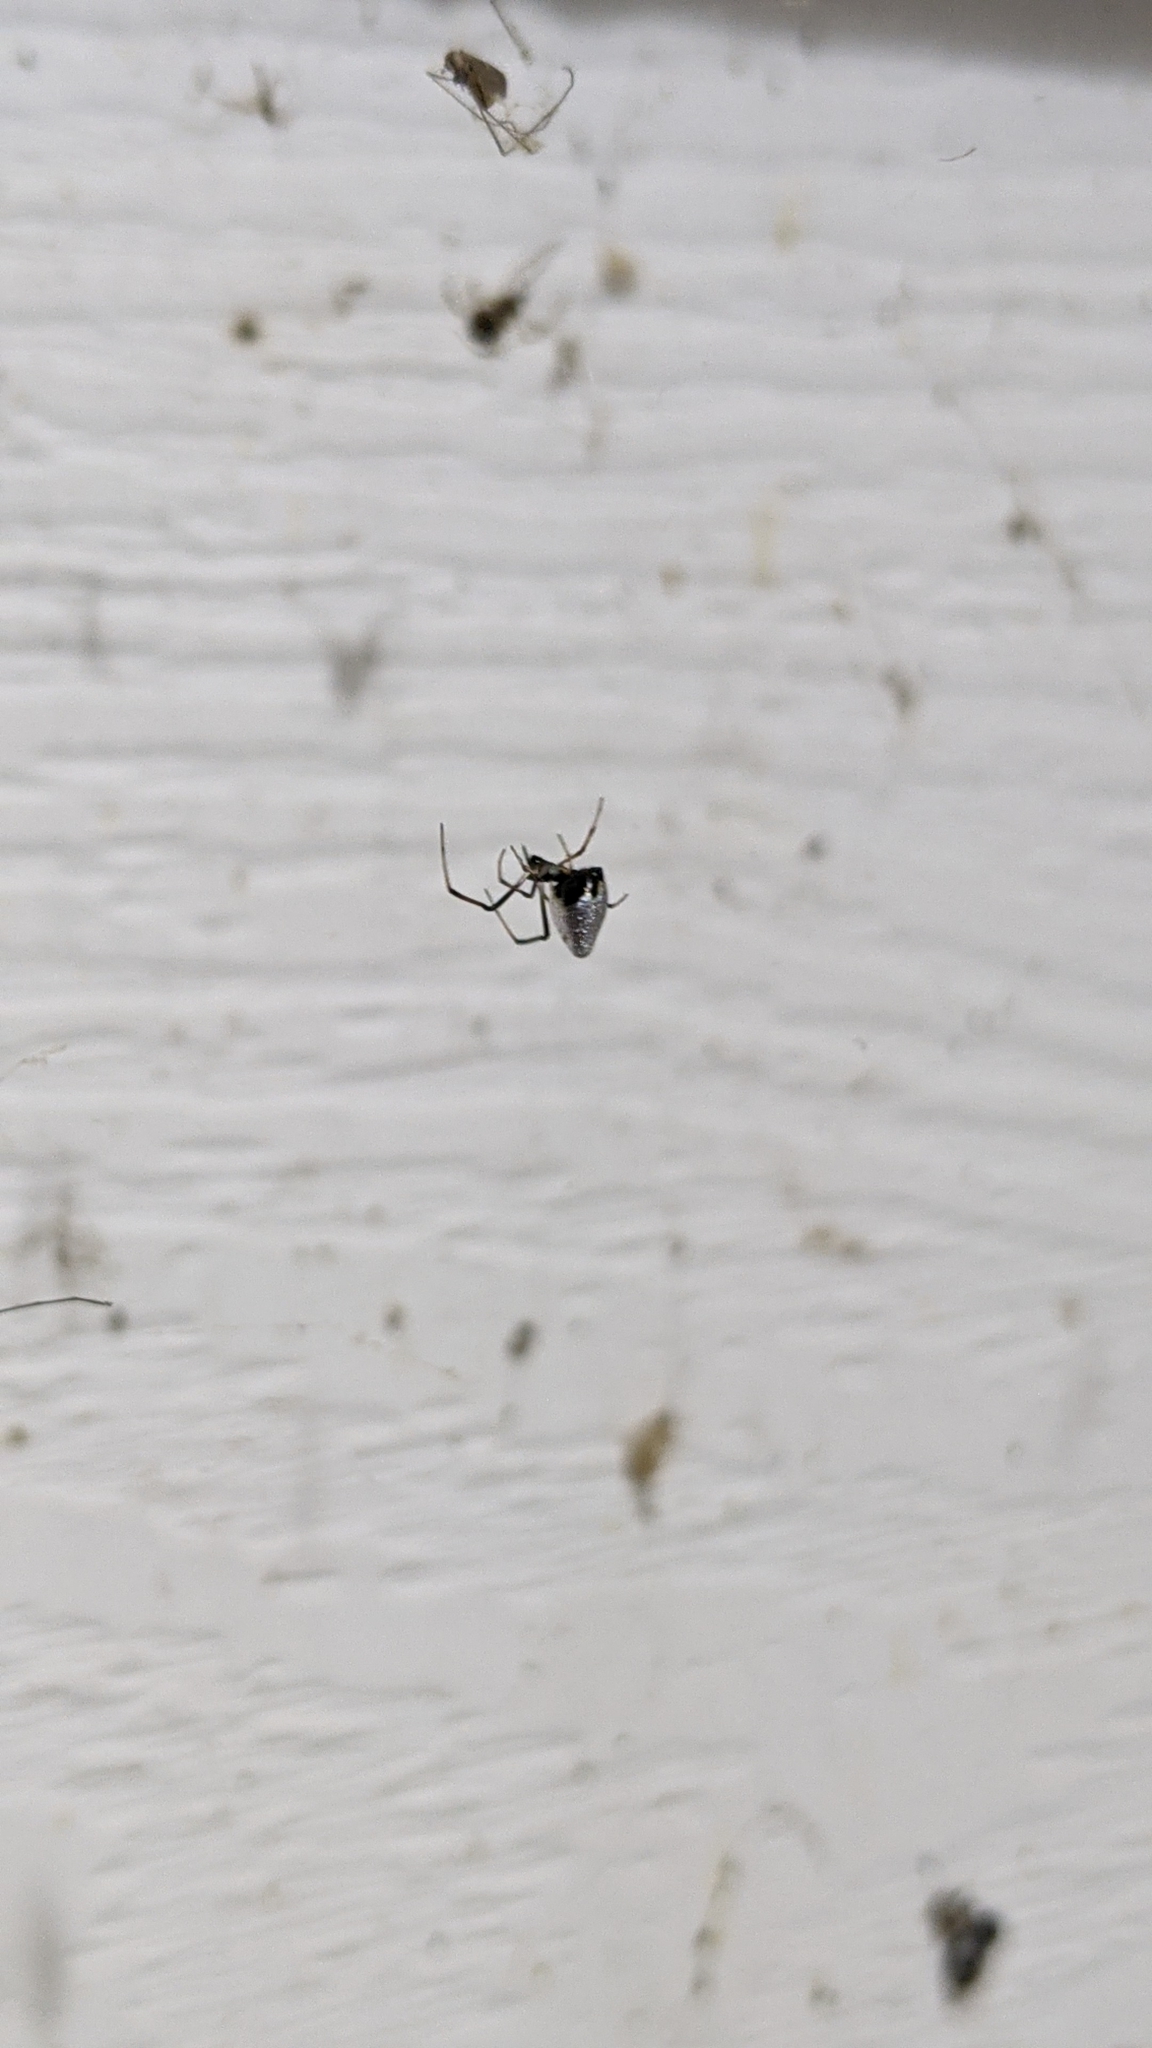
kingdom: Animalia
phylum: Arthropoda
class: Arachnida
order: Araneae
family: Theridiidae
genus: Argyrodes
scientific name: Argyrodes elevatus
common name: Cobweb spiders
